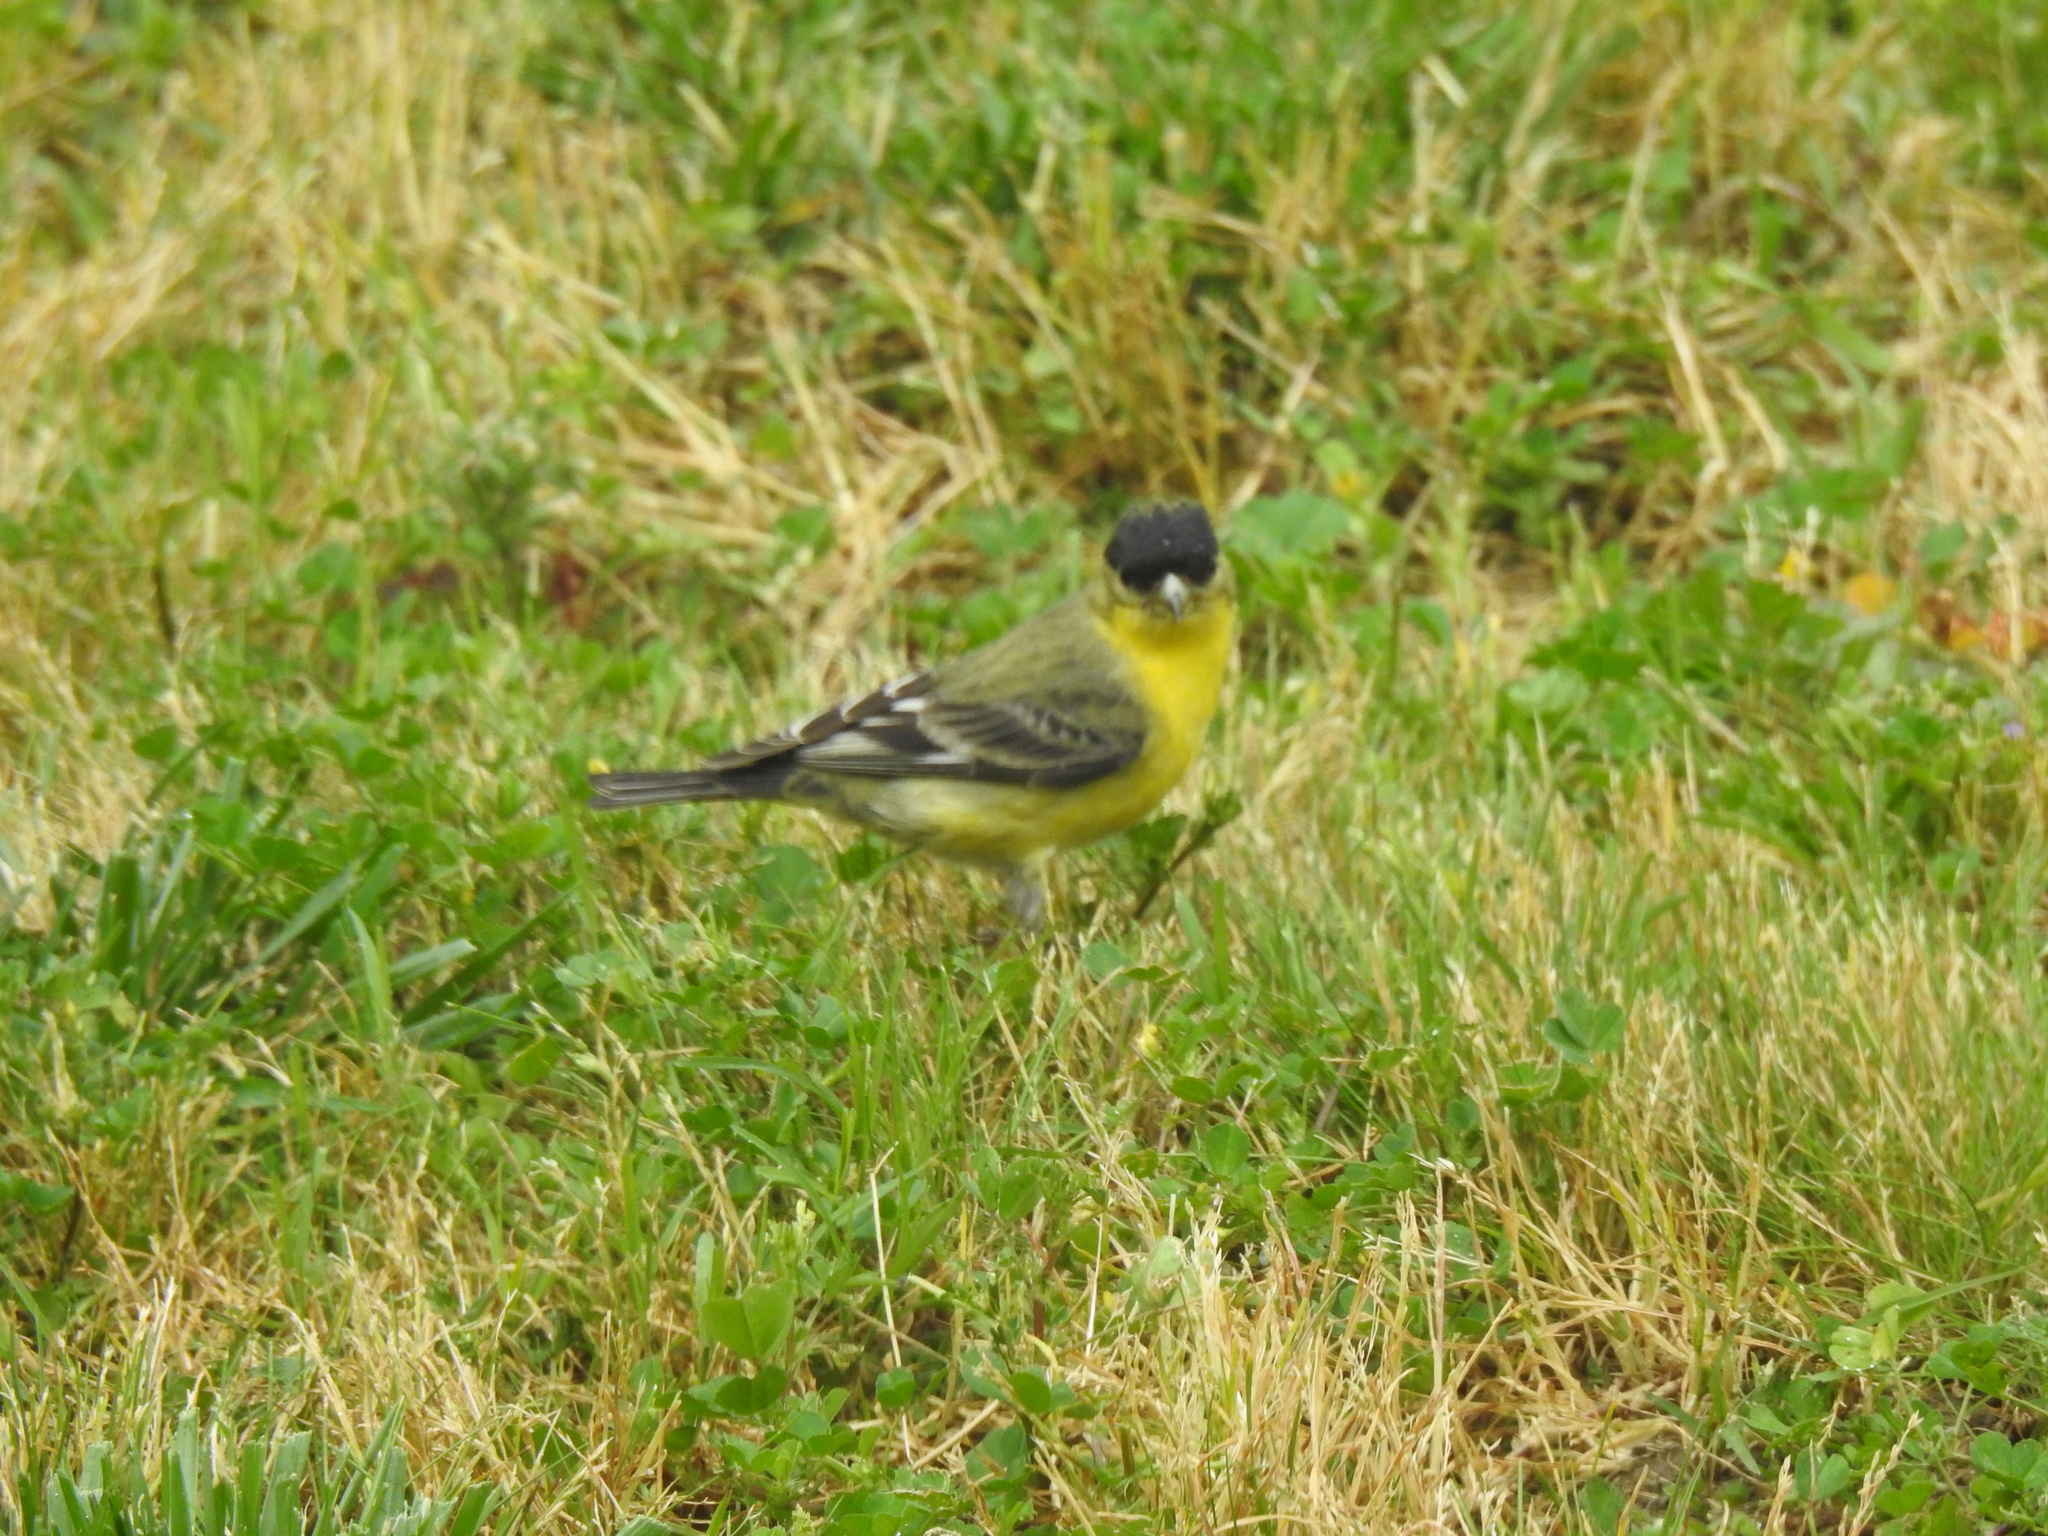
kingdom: Animalia
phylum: Chordata
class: Aves
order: Passeriformes
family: Fringillidae
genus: Spinus
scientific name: Spinus psaltria
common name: Lesser goldfinch
